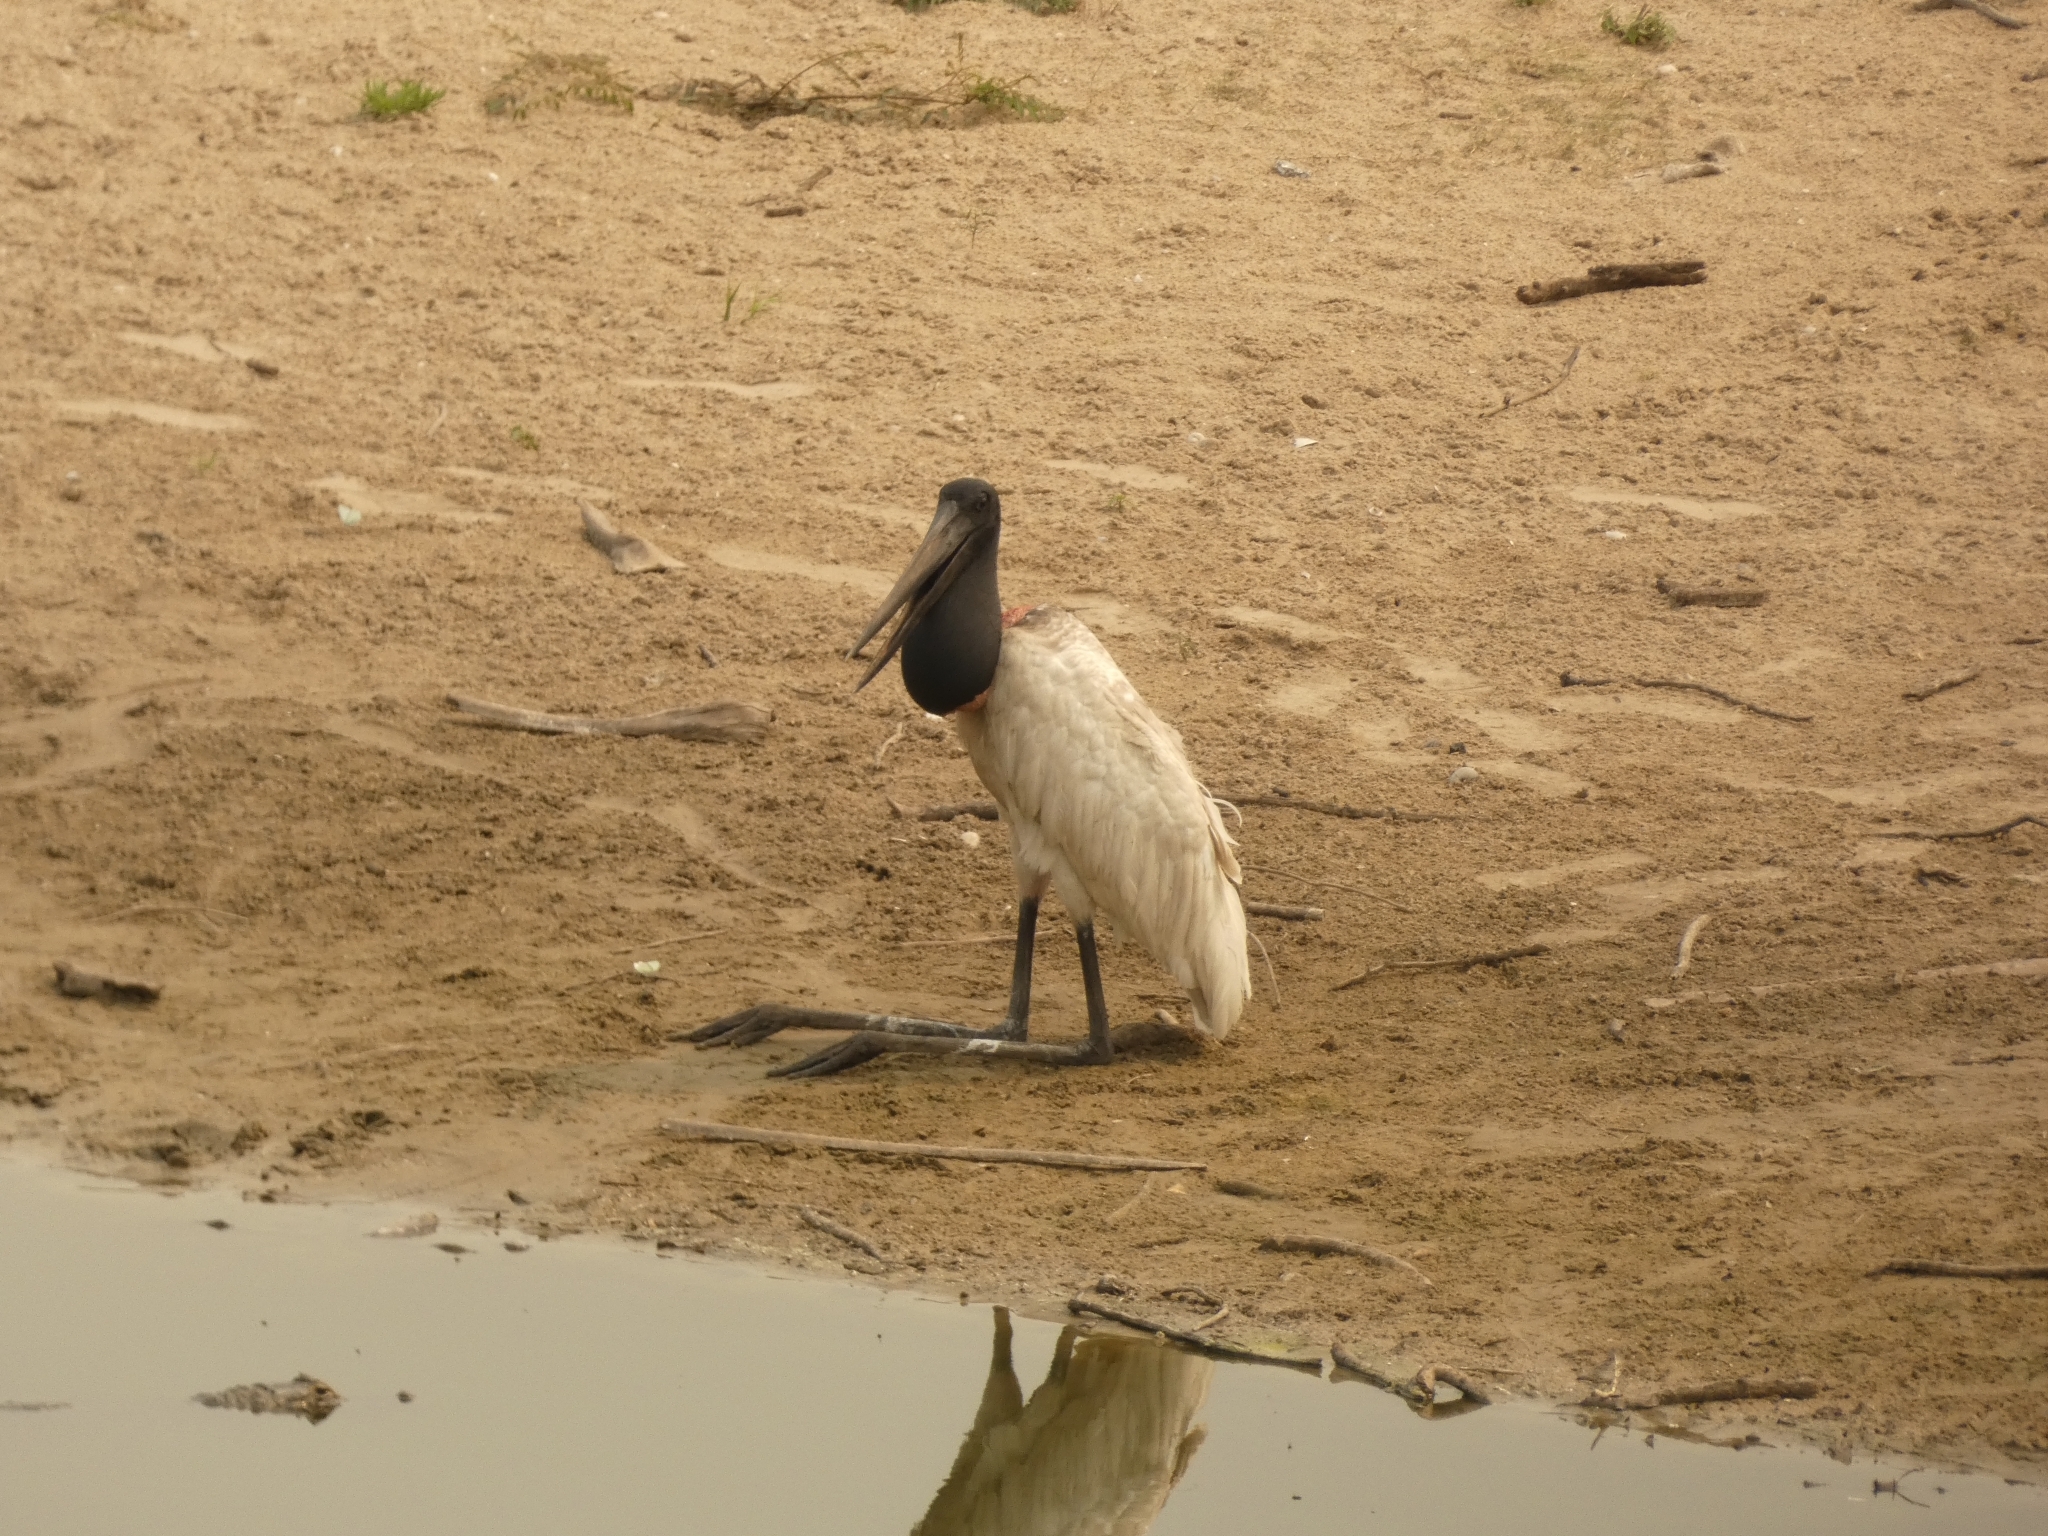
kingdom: Animalia
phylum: Chordata
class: Aves
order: Ciconiiformes
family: Ciconiidae
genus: Jabiru
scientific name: Jabiru mycteria
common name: Jabiru
